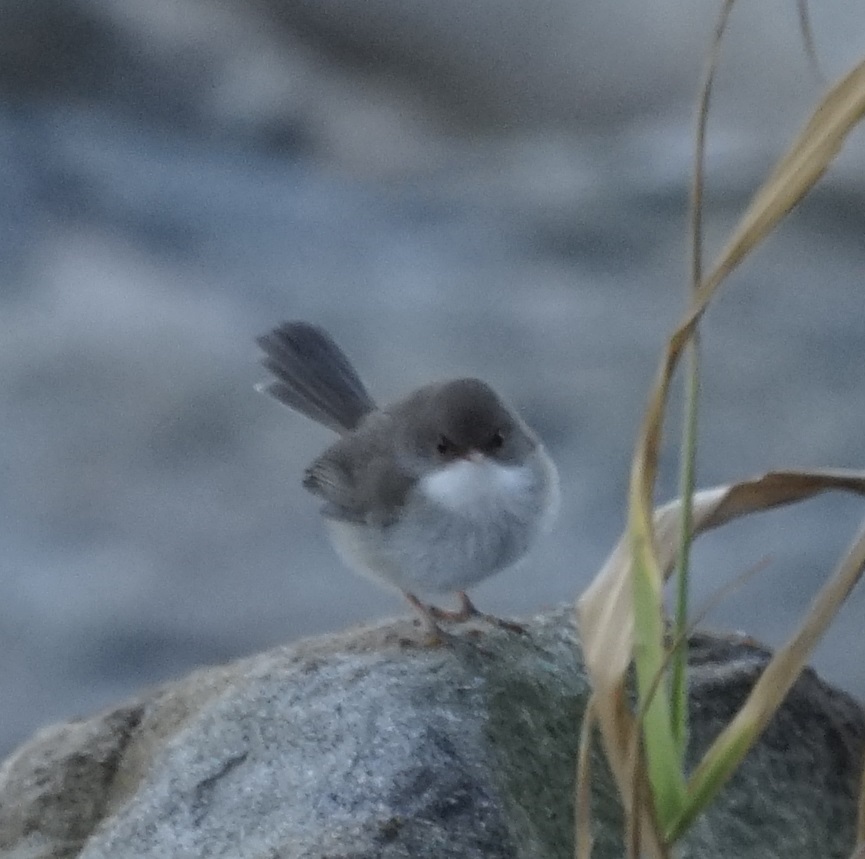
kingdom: Animalia
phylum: Chordata
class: Aves
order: Passeriformes
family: Maluridae
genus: Malurus
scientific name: Malurus cyaneus
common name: Superb fairywren
